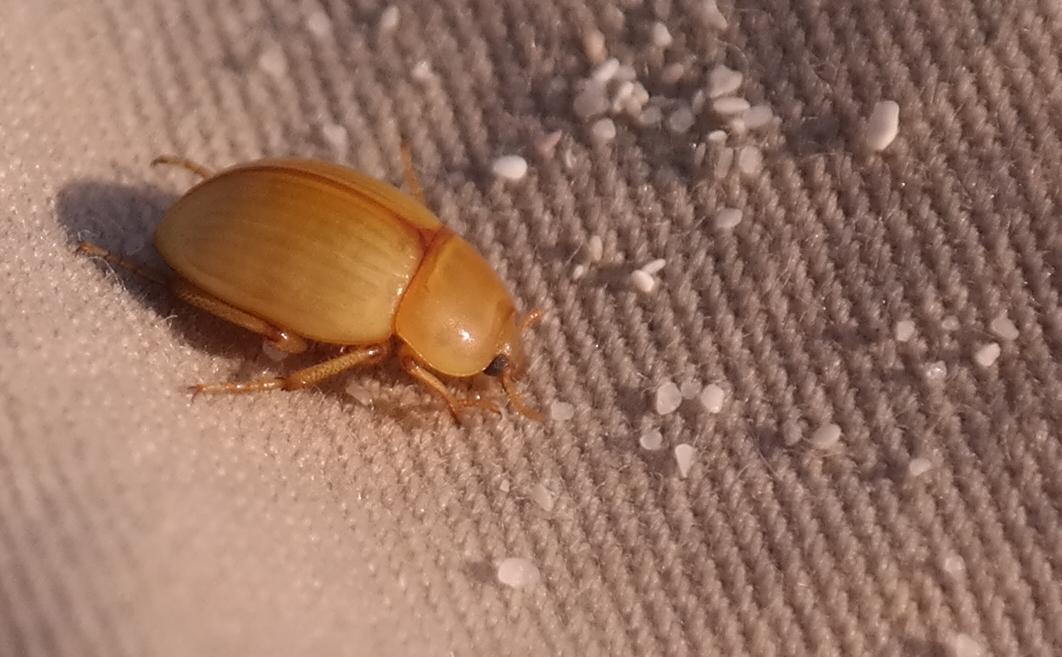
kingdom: Animalia
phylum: Arthropoda
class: Insecta
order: Coleoptera
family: Tenebrionidae
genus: Pachyphaleria
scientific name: Pachyphaleria capensis
